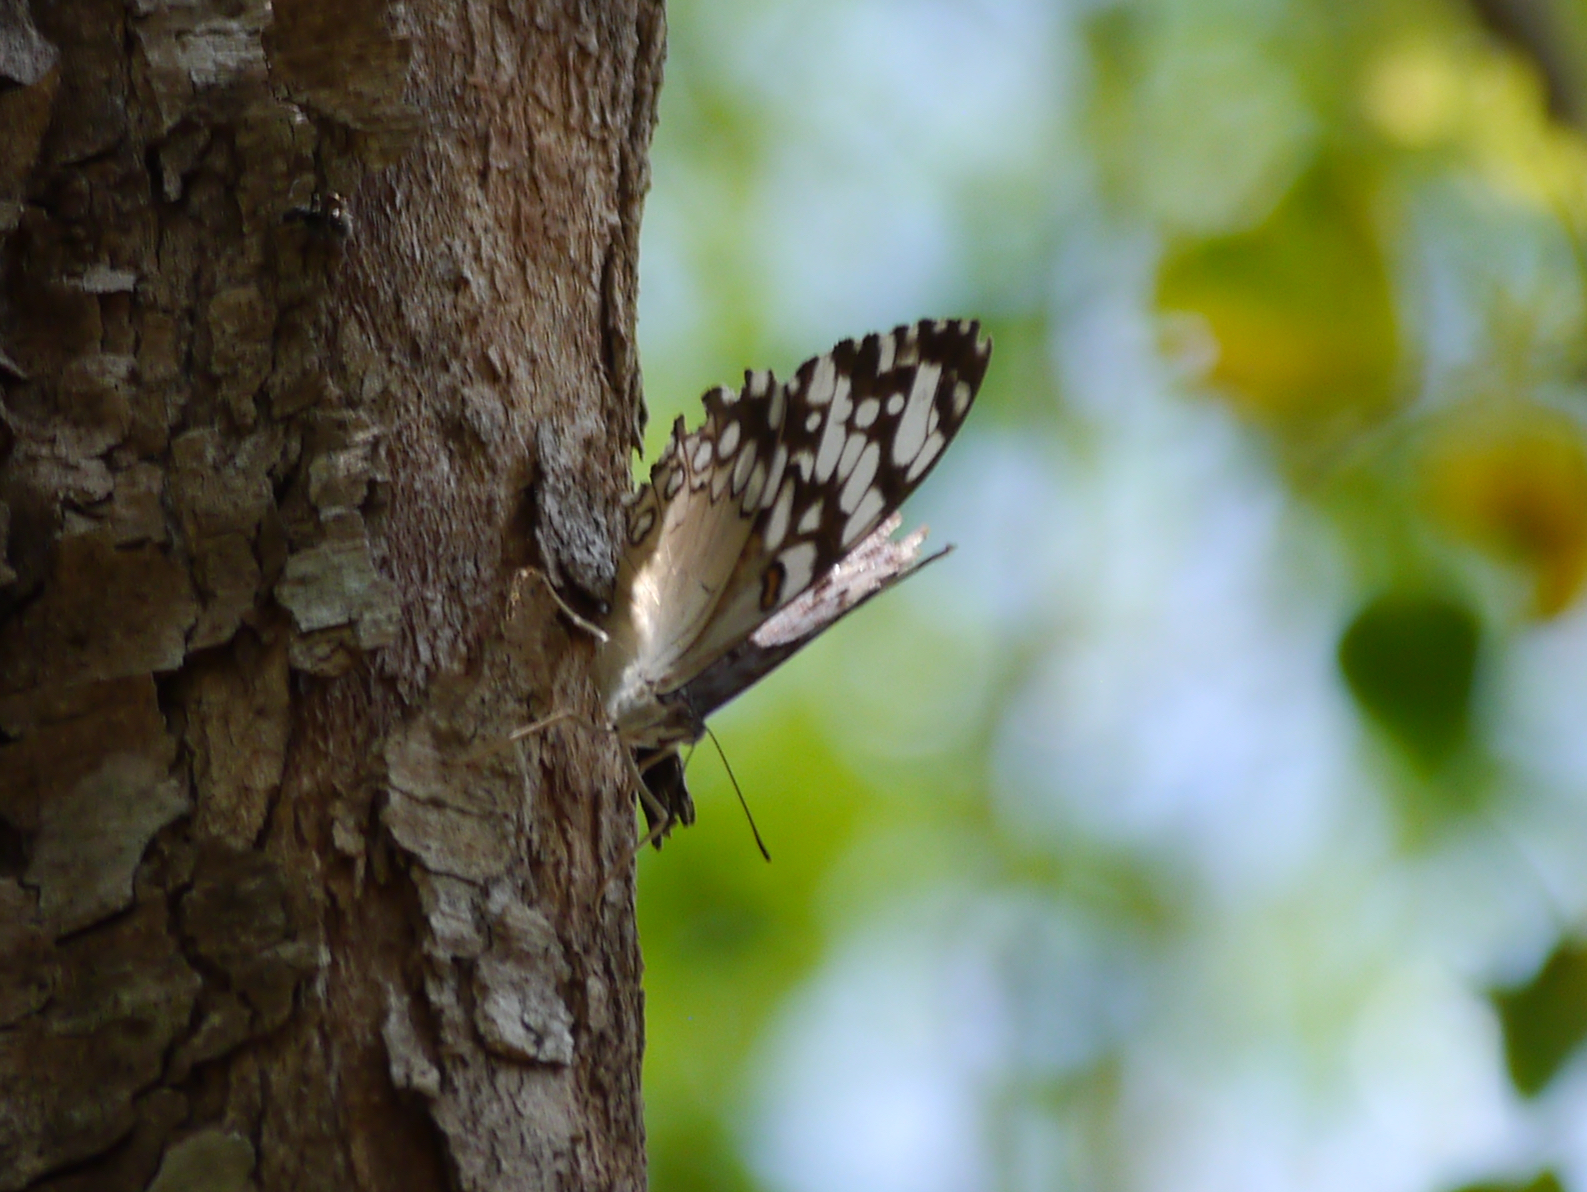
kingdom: Animalia
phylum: Arthropoda
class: Insecta
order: Lepidoptera
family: Nymphalidae
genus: Hamadryas
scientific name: Hamadryas guatemalena
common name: Guatemalan cracker
